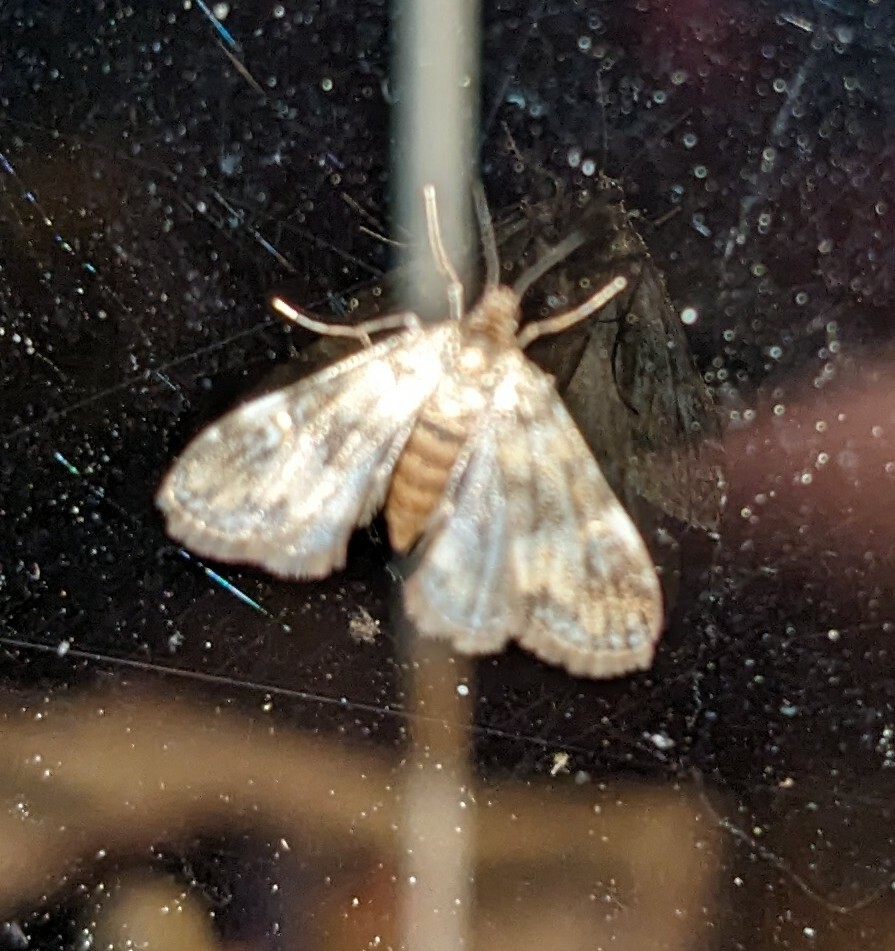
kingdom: Animalia
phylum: Arthropoda
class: Insecta
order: Lepidoptera
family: Crambidae
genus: Elophila
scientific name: Elophila obliteralis
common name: Waterlily leafcutter moth
